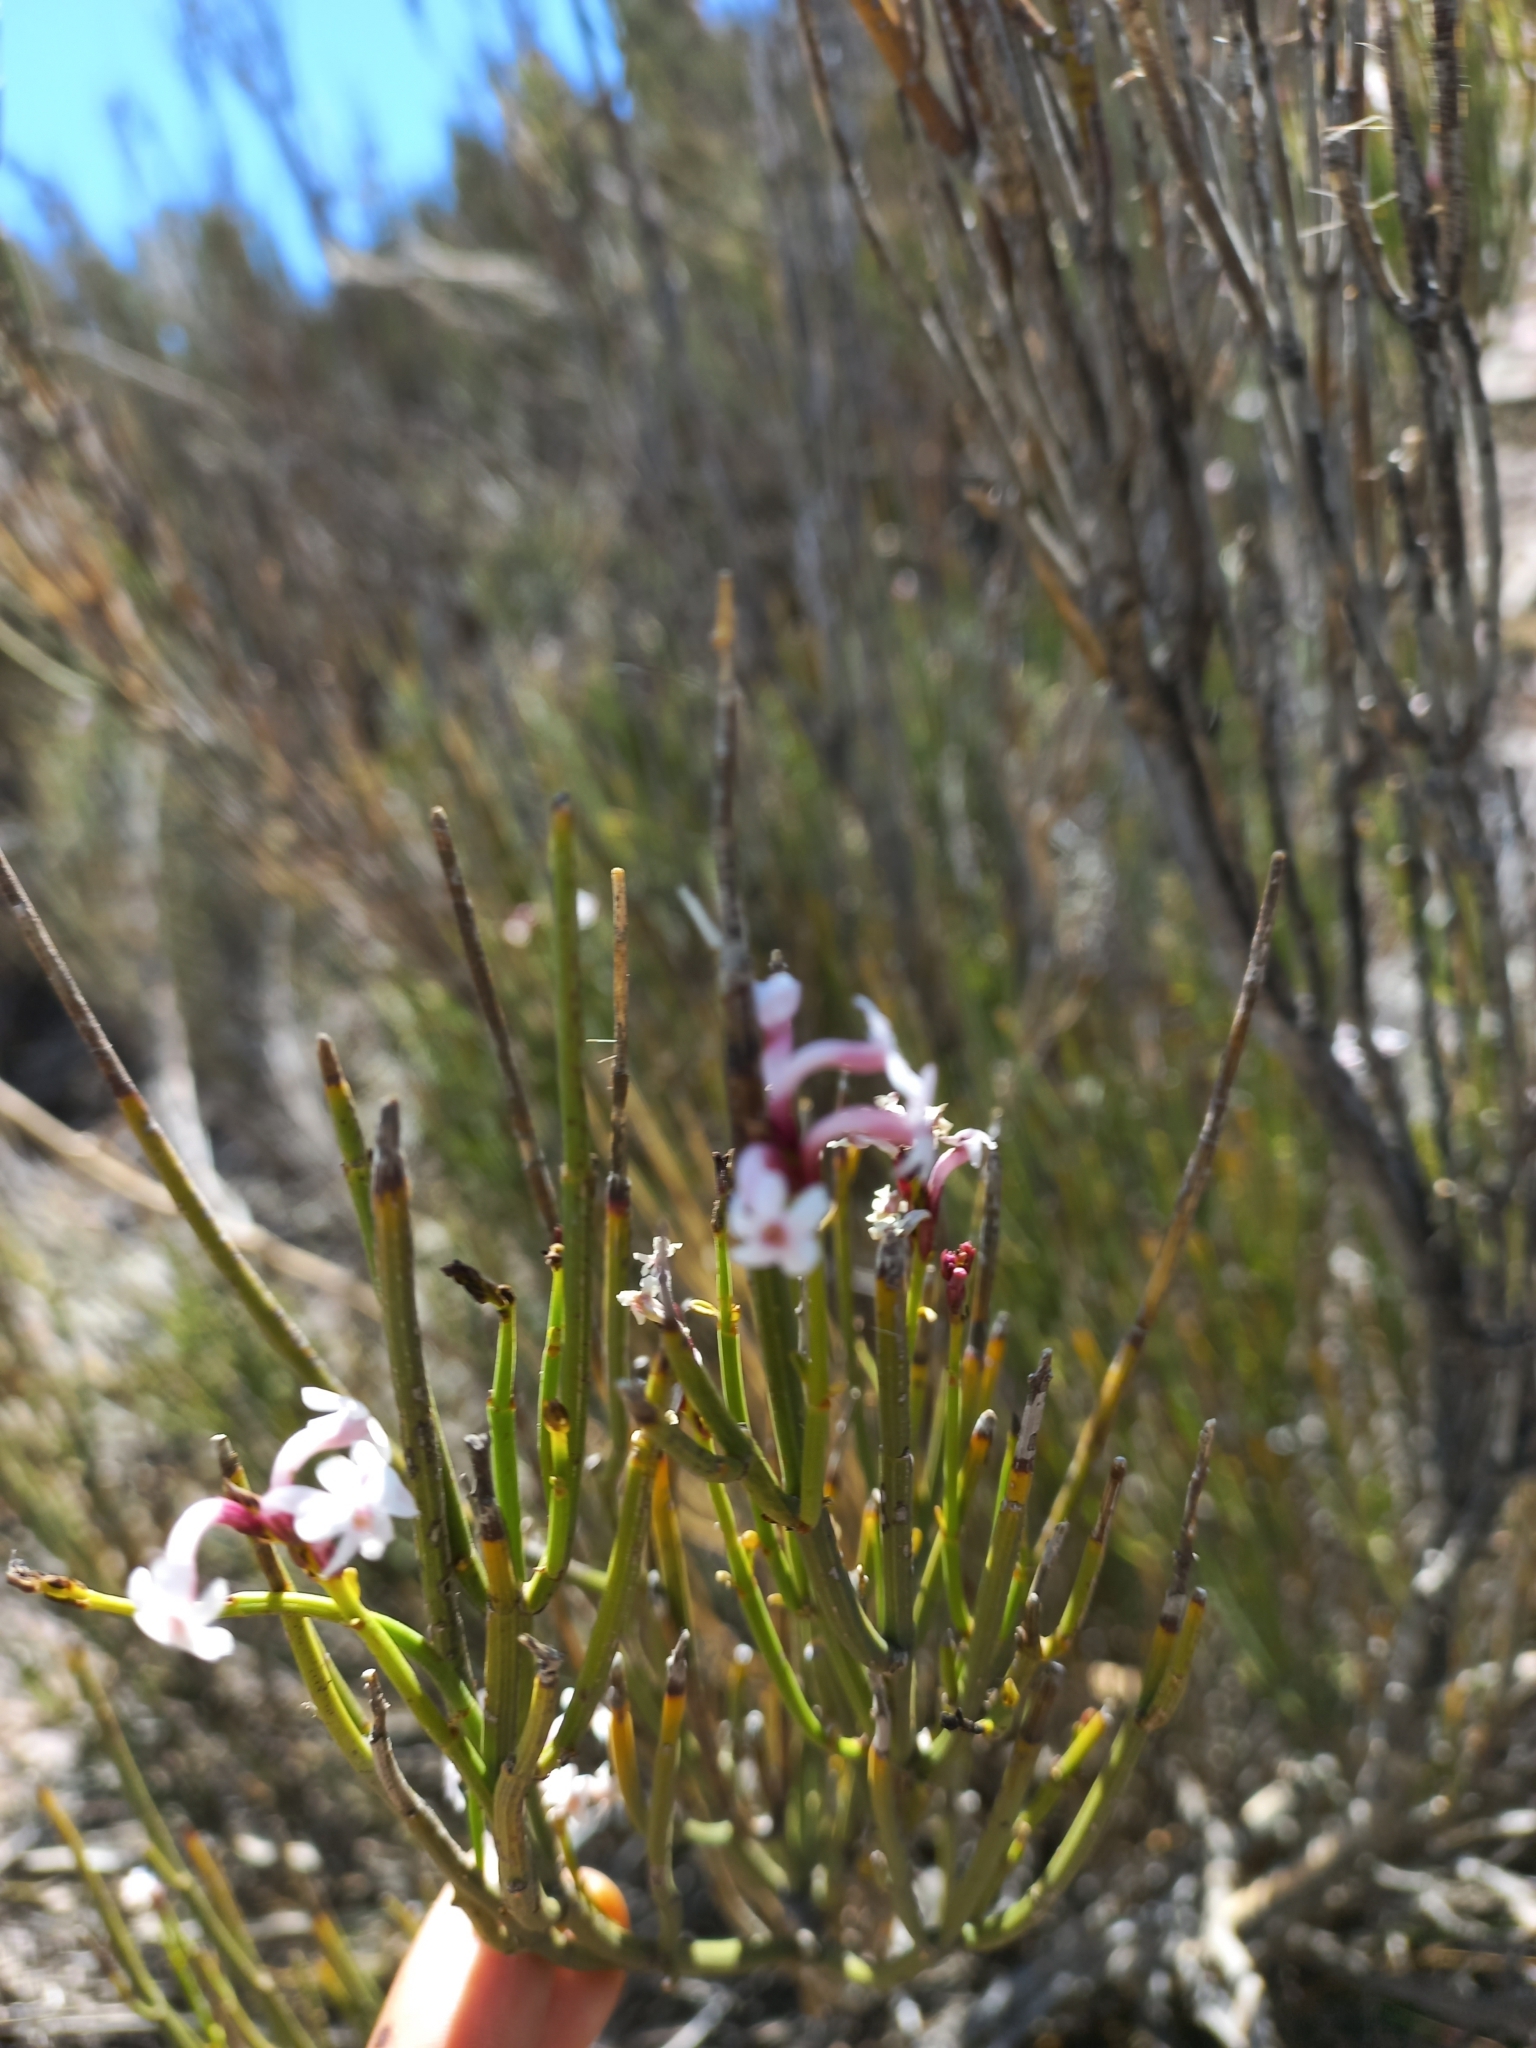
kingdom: Plantae
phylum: Tracheophyta
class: Magnoliopsida
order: Lamiales
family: Verbenaceae
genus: Mulguraea
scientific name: Mulguraea scoparia
